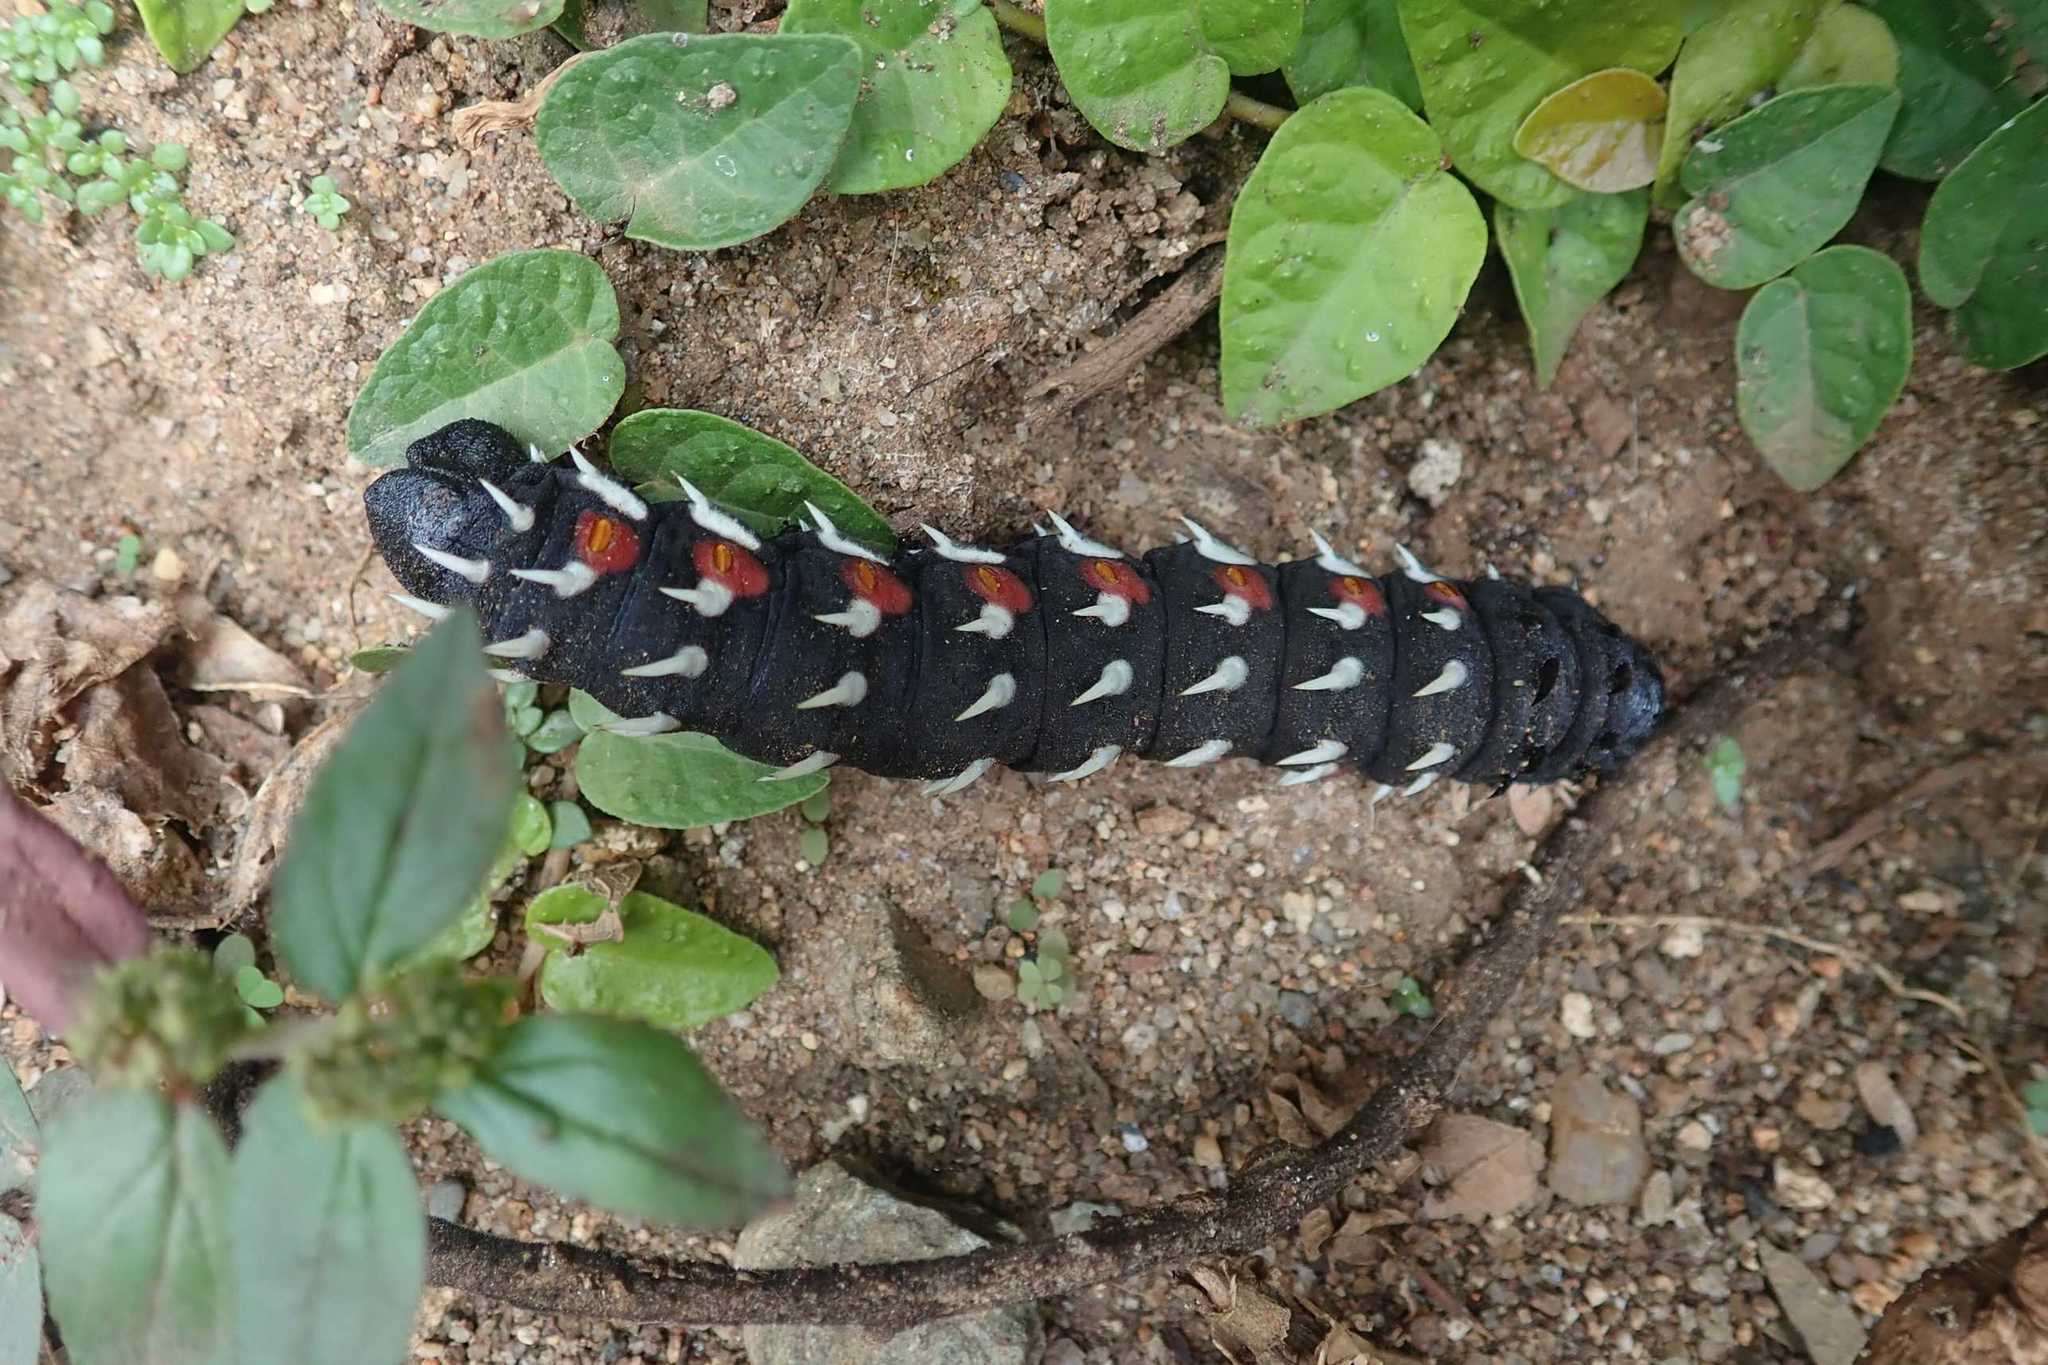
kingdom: Animalia
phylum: Arthropoda
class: Insecta
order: Lepidoptera
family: Saturniidae
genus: Bunaea
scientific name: Bunaea alcinoe
